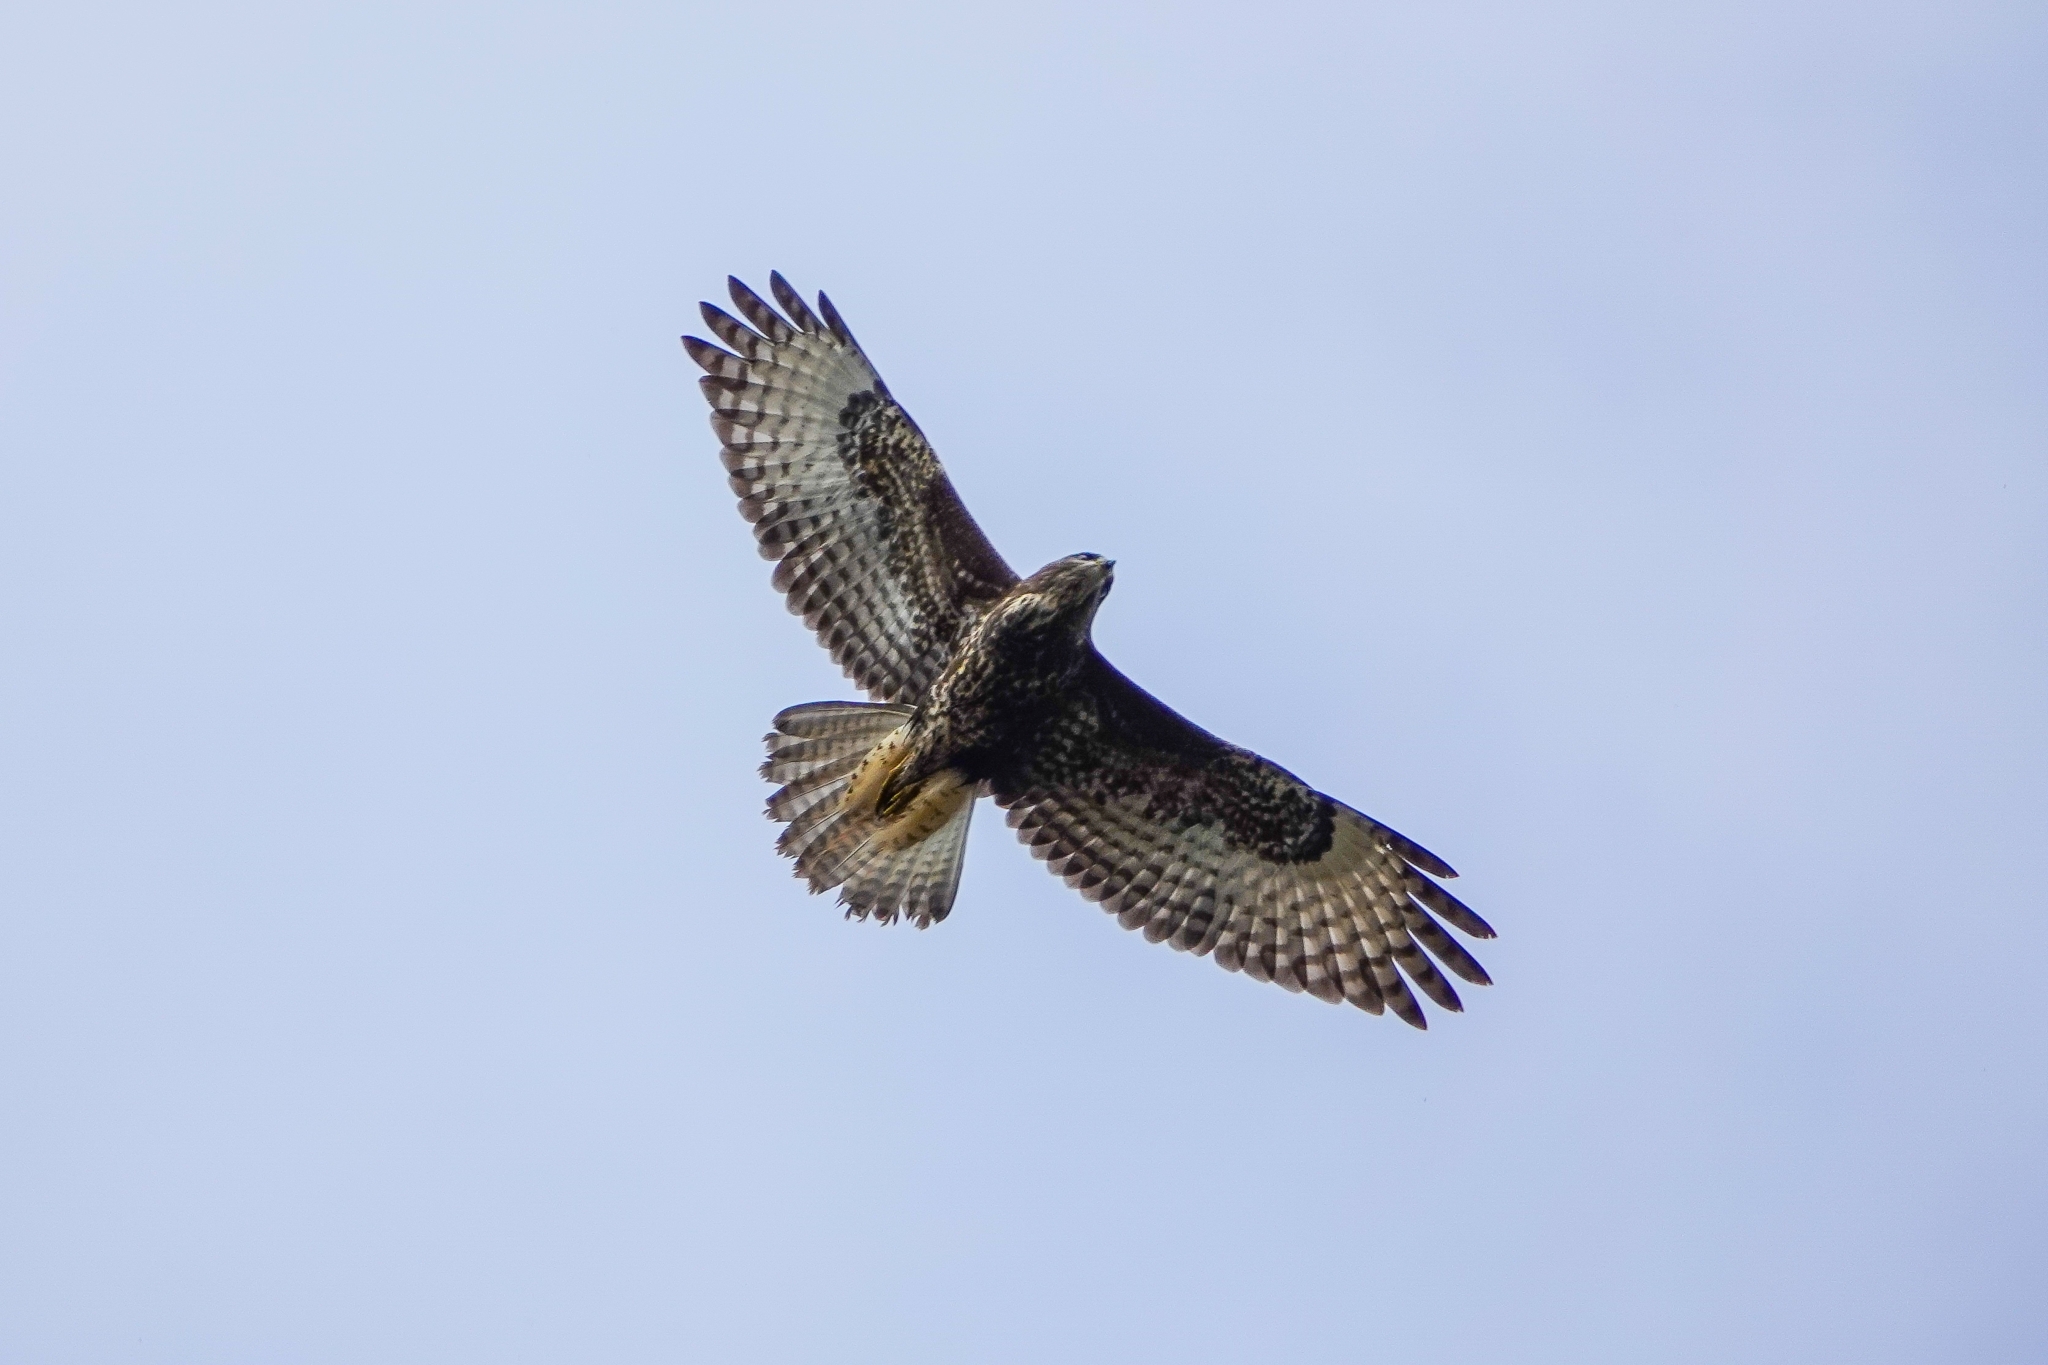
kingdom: Animalia
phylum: Chordata
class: Aves
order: Accipitriformes
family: Accipitridae
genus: Buteo
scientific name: Buteo buteo
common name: Common buzzard
